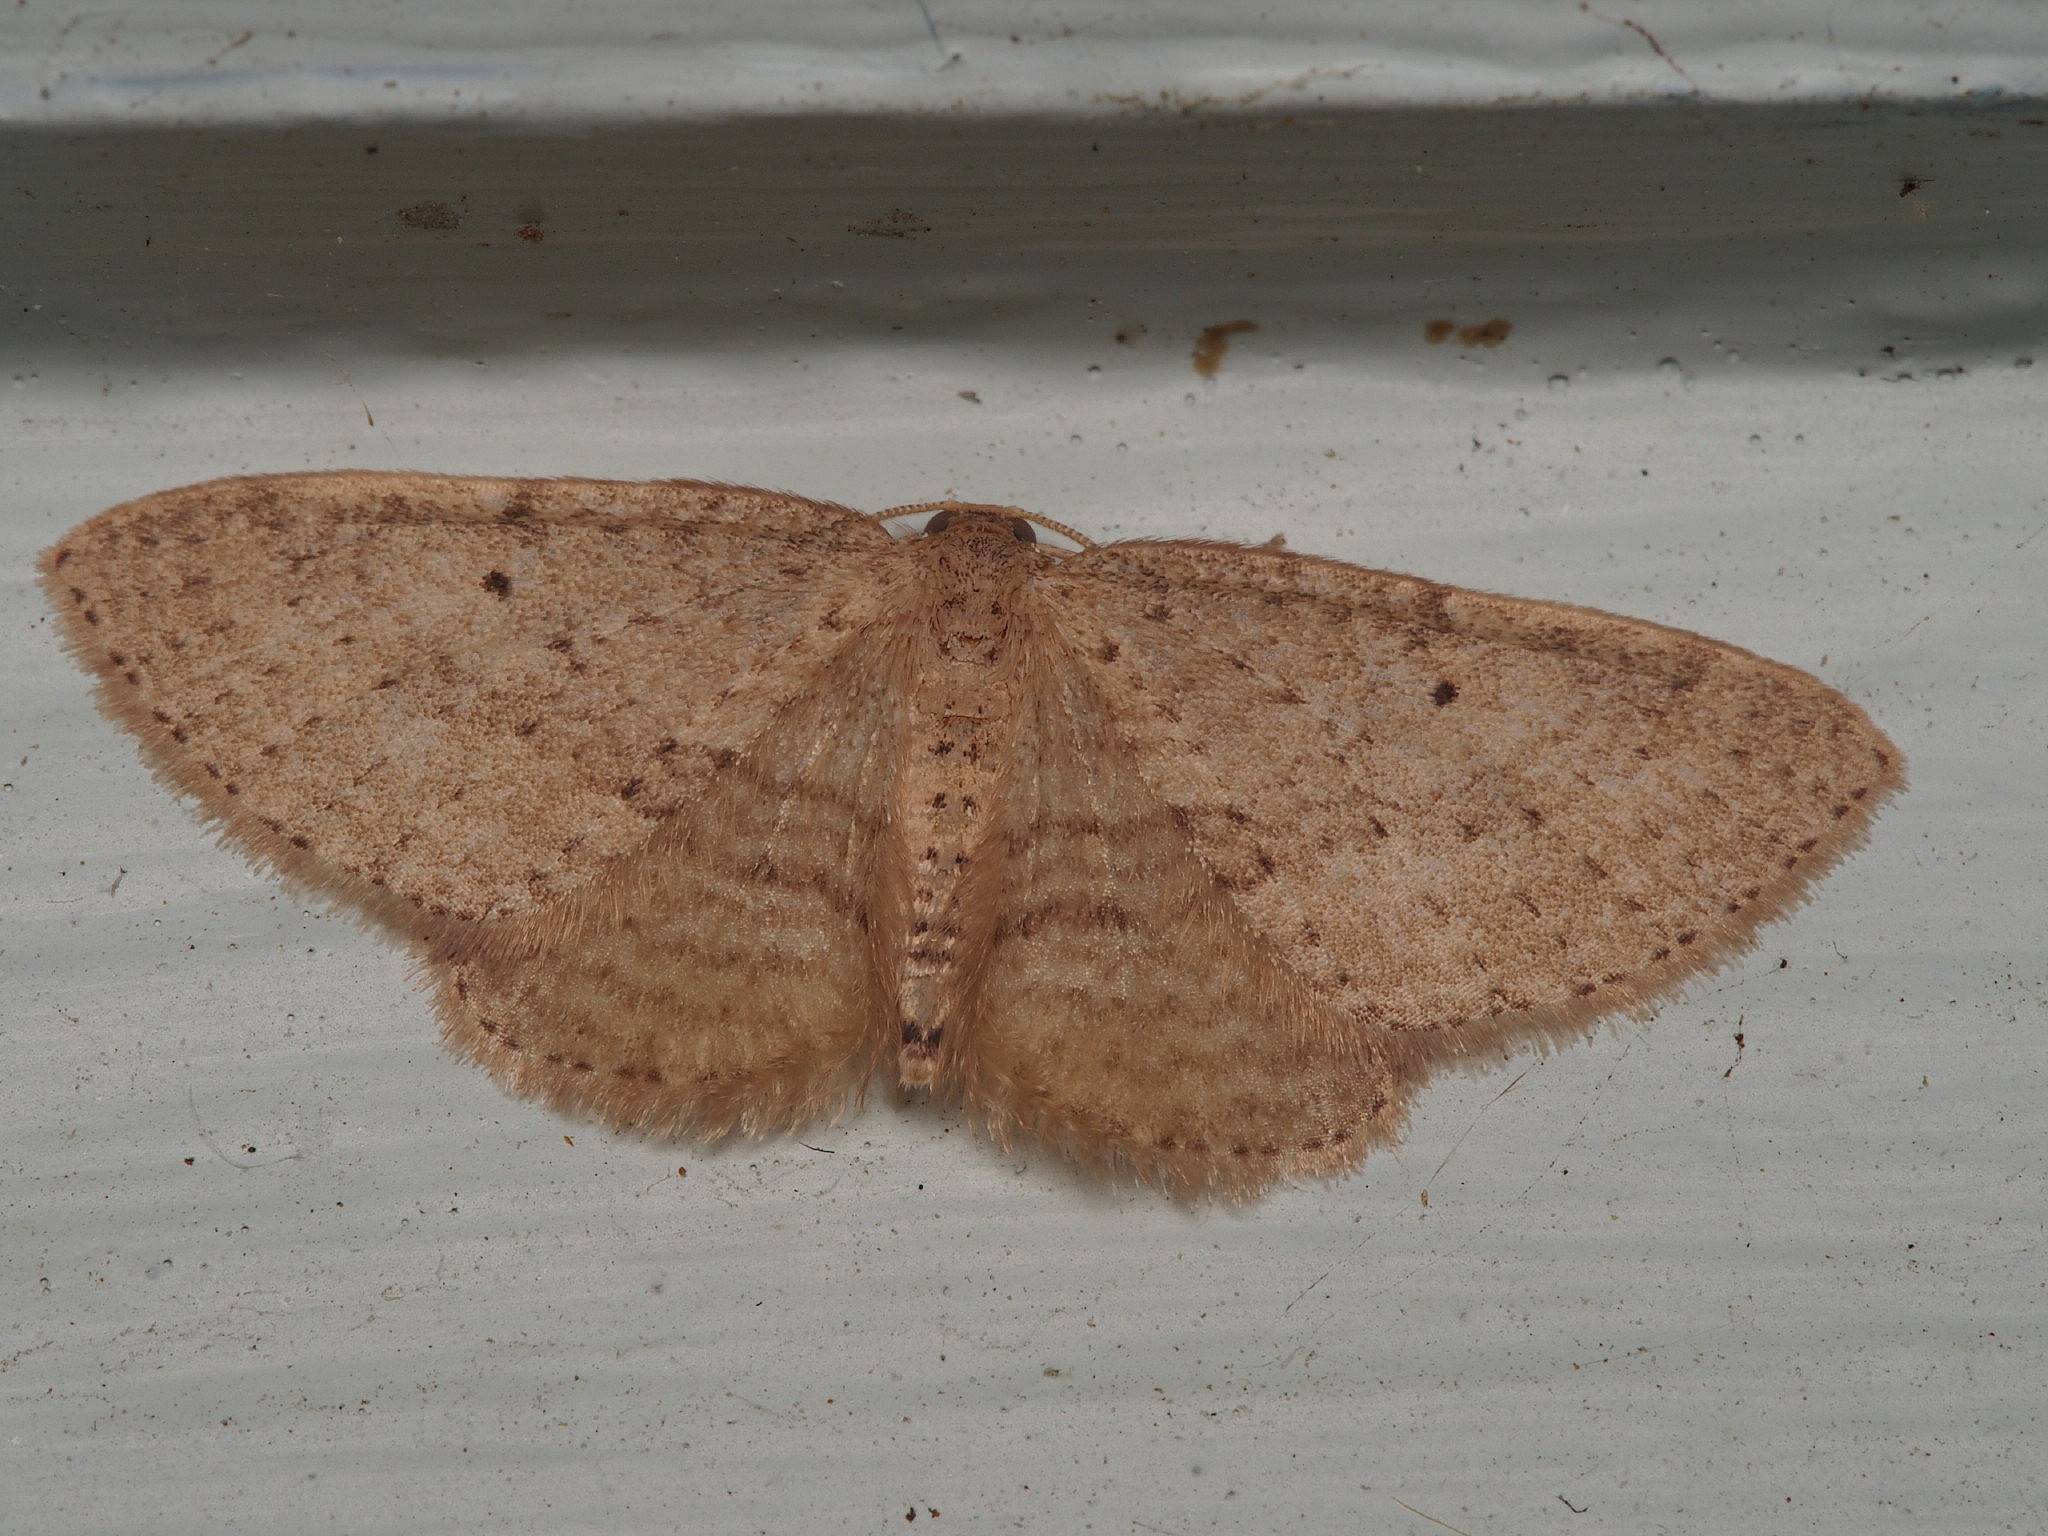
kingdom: Animalia
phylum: Arthropoda
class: Insecta
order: Lepidoptera
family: Geometridae
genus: Poecilasthena
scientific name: Poecilasthena schistaria
